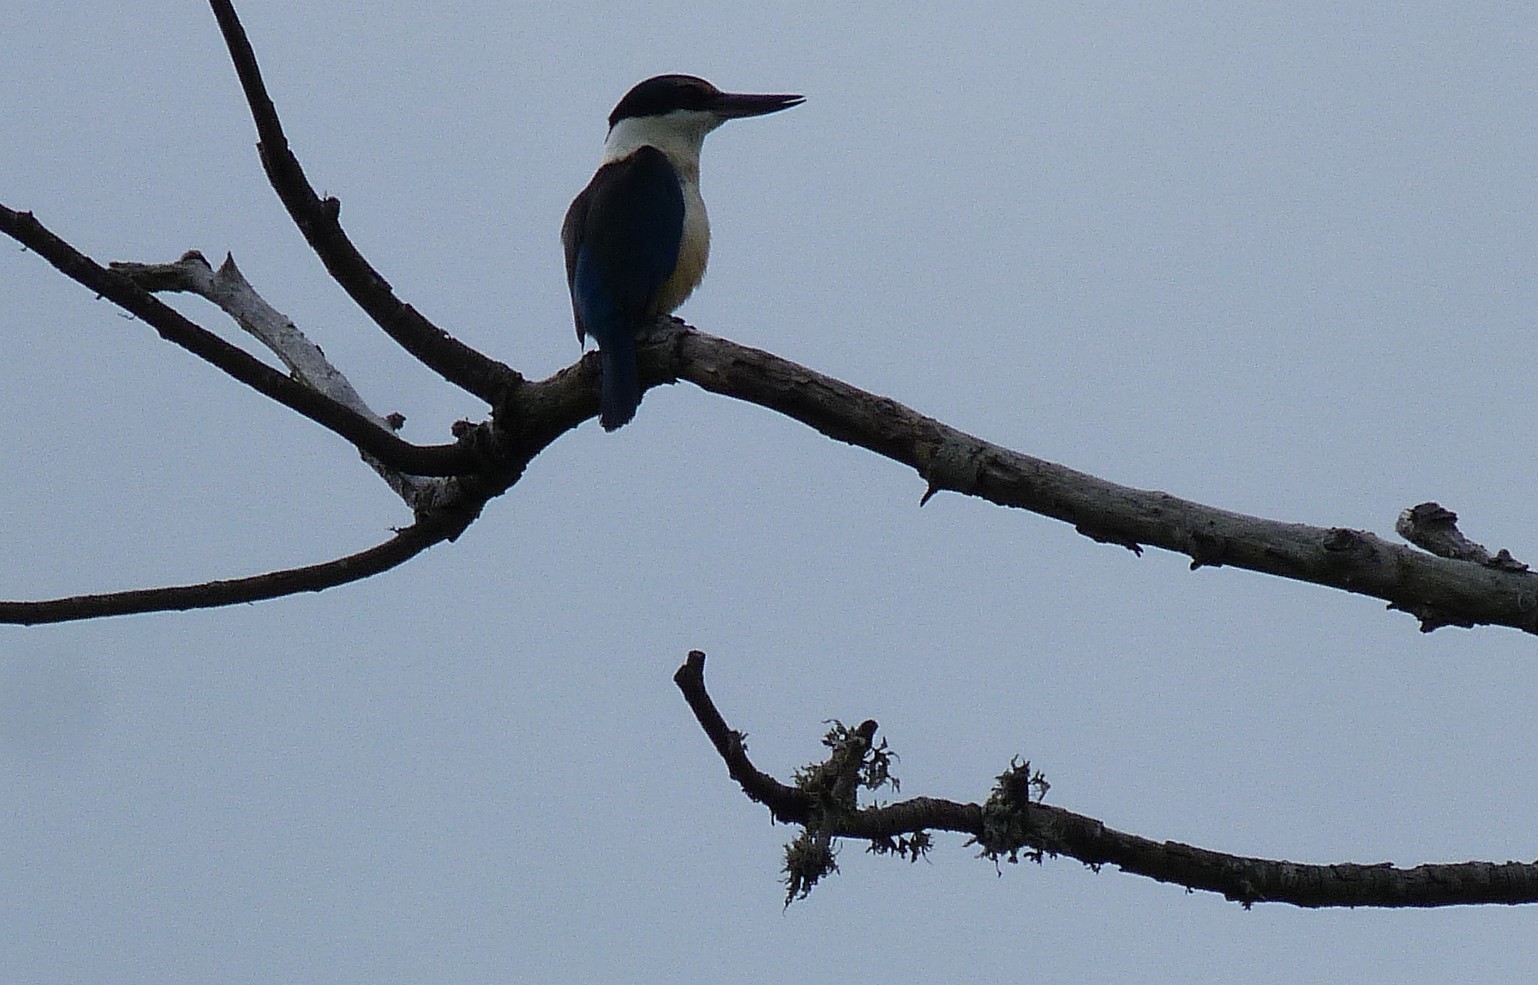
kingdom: Animalia
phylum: Chordata
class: Aves
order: Coraciiformes
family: Alcedinidae
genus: Todiramphus
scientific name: Todiramphus sanctus
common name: Sacred kingfisher
